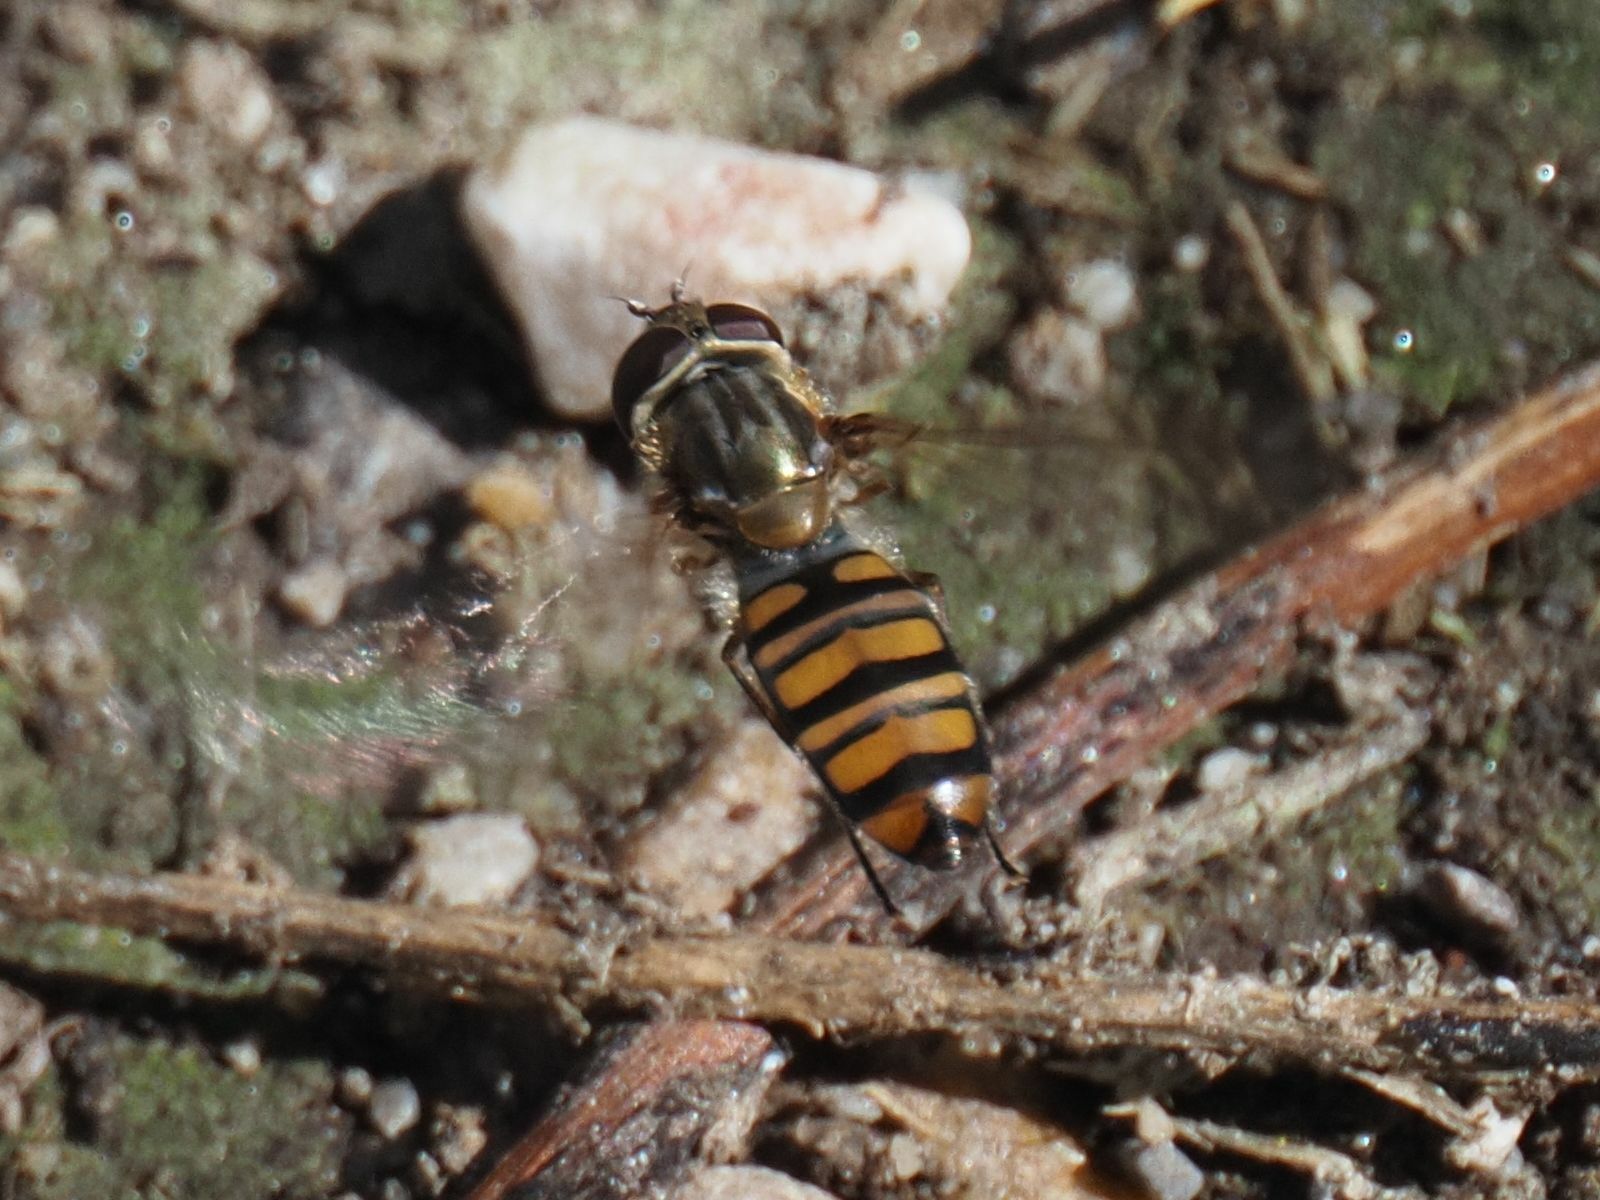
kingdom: Animalia
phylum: Arthropoda
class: Insecta
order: Diptera
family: Syrphidae
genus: Episyrphus
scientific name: Episyrphus balteatus
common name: Marmalade hoverfly
